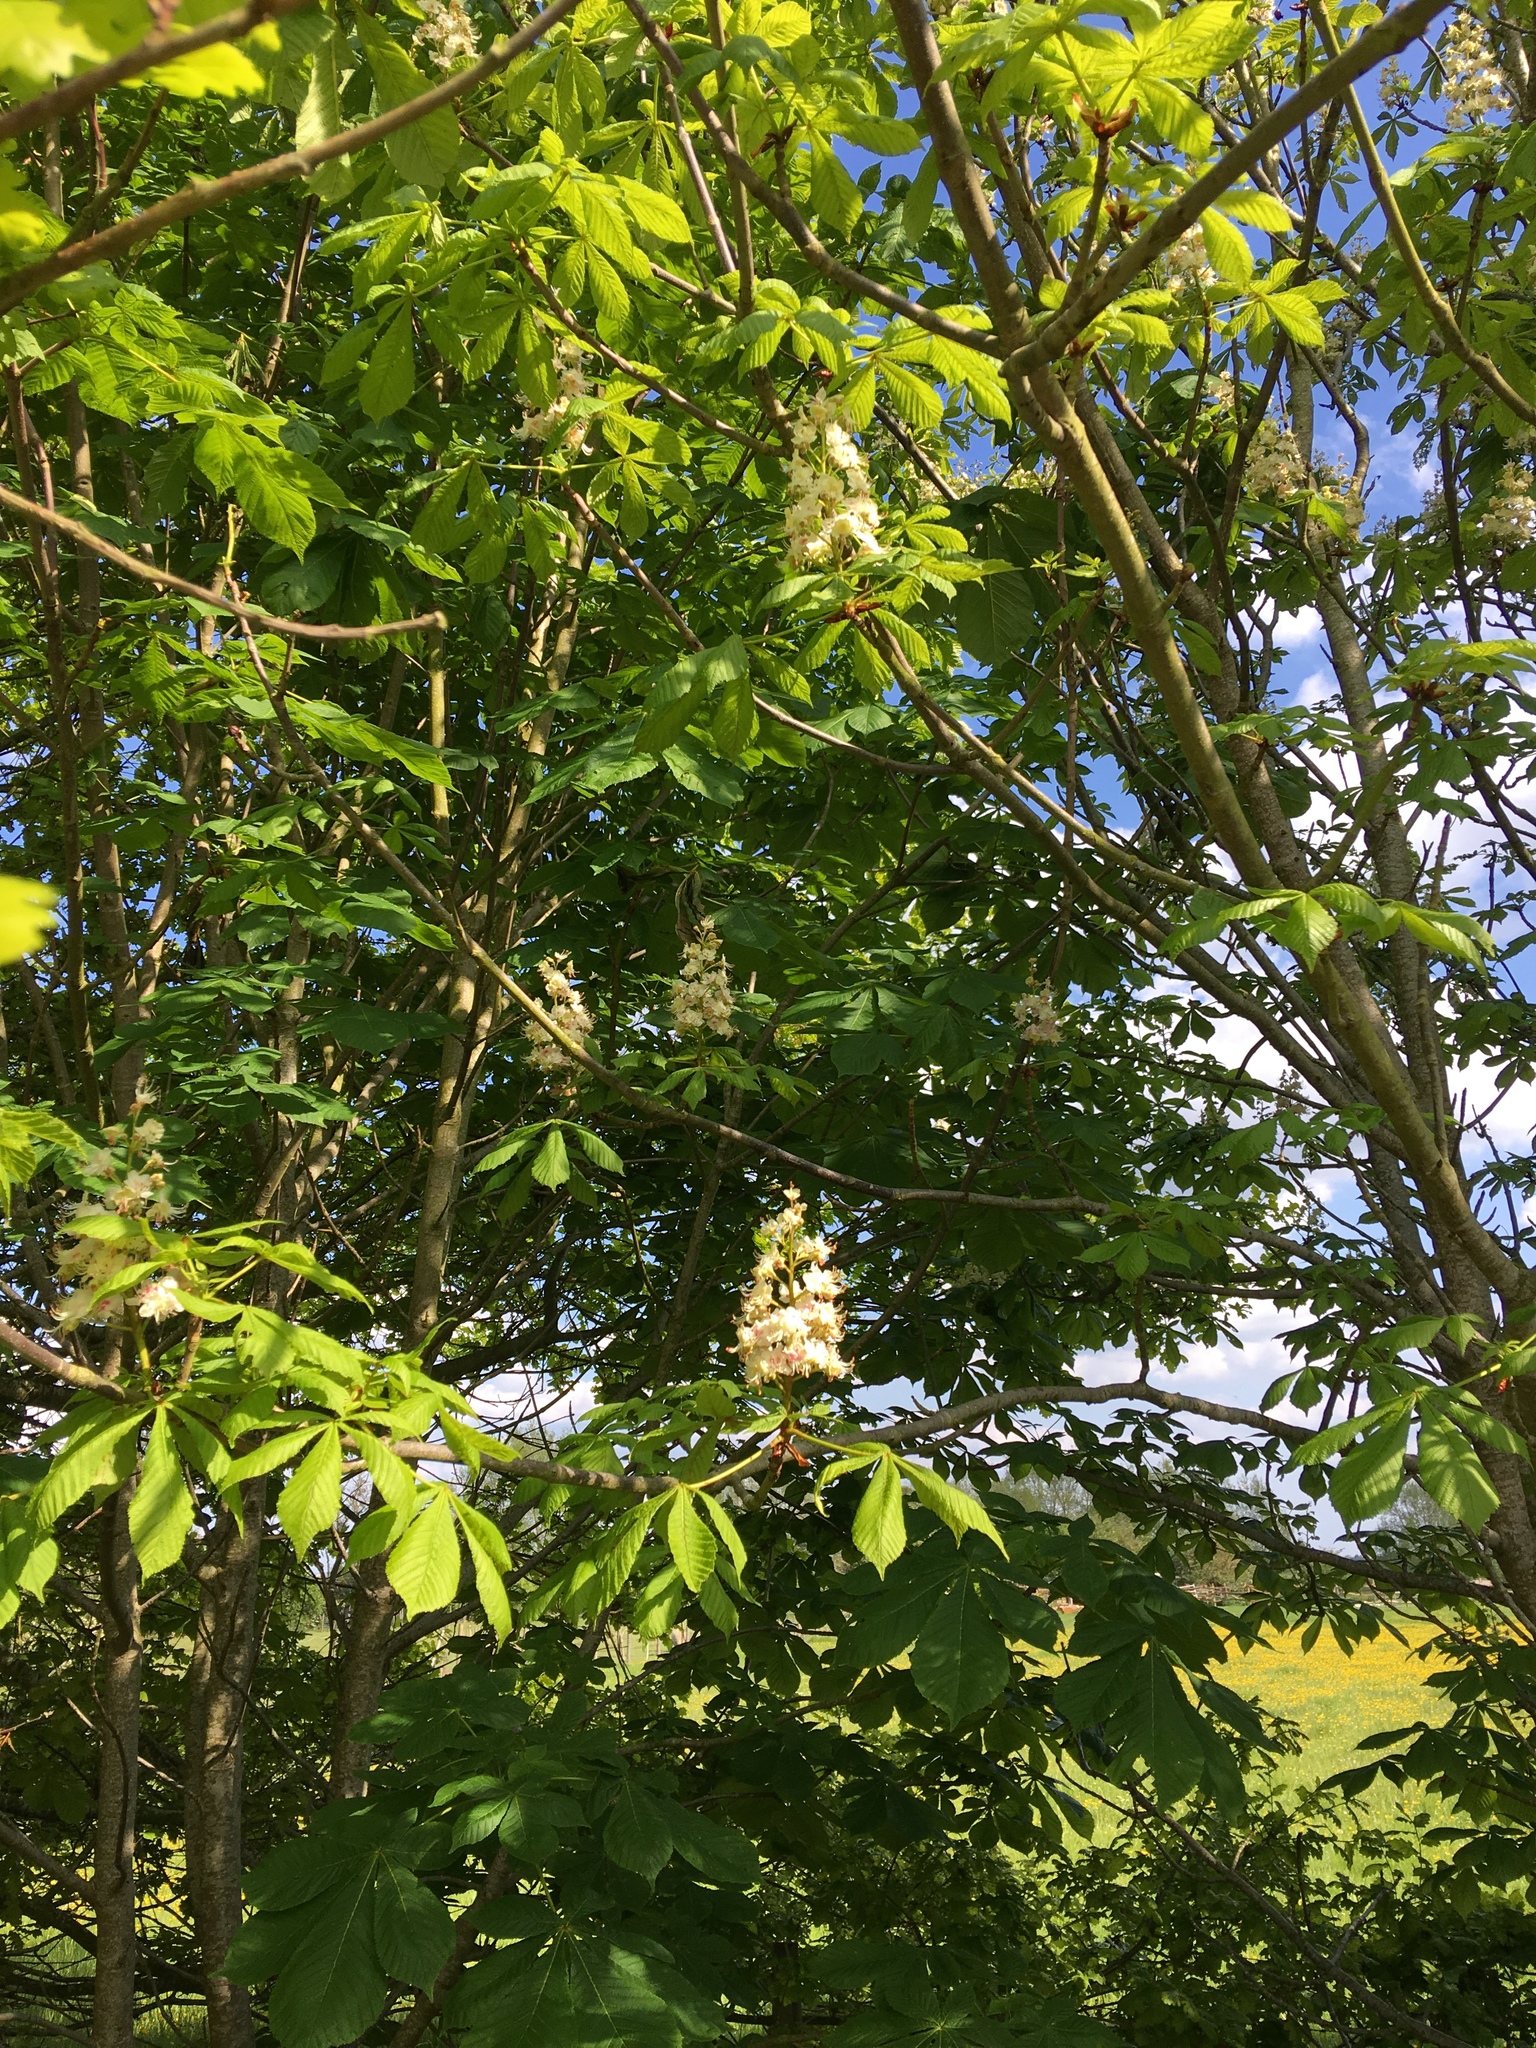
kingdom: Plantae
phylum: Tracheophyta
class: Magnoliopsida
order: Sapindales
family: Sapindaceae
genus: Aesculus
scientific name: Aesculus hippocastanum
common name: Horse-chestnut
